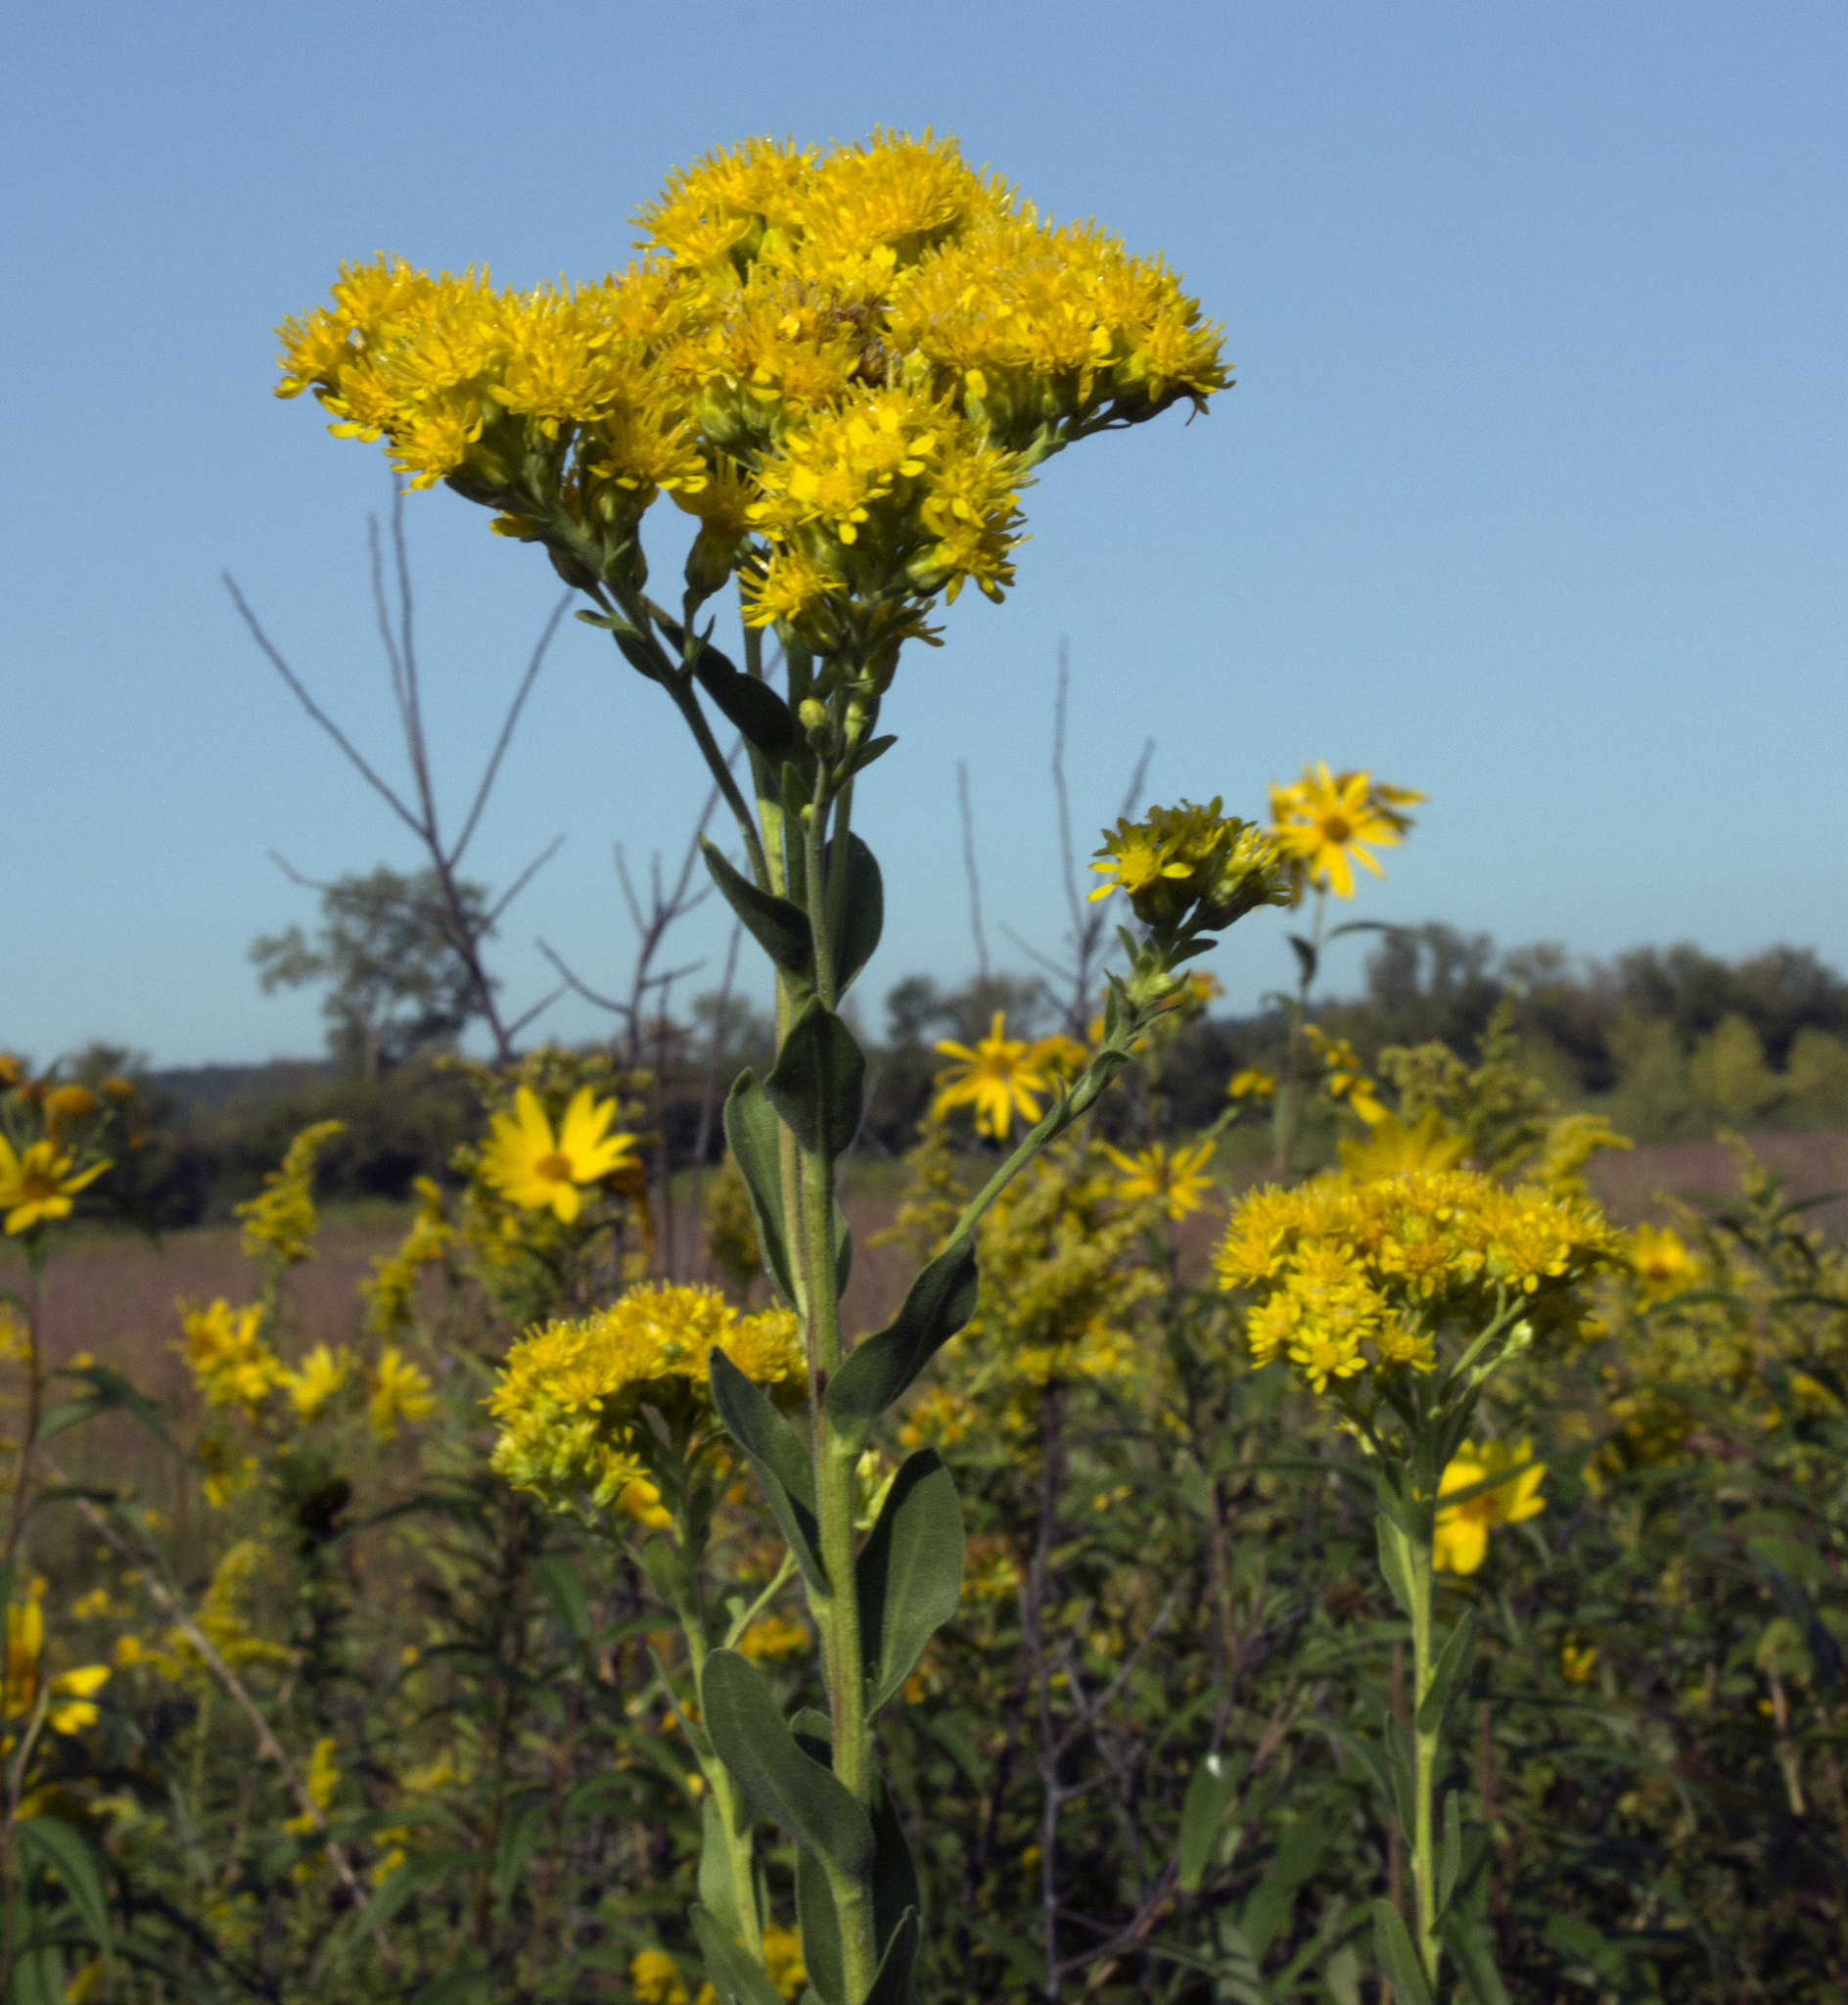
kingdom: Plantae
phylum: Tracheophyta
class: Magnoliopsida
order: Asterales
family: Asteraceae
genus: Solidago
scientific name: Solidago rigida
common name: Rigid goldenrod
